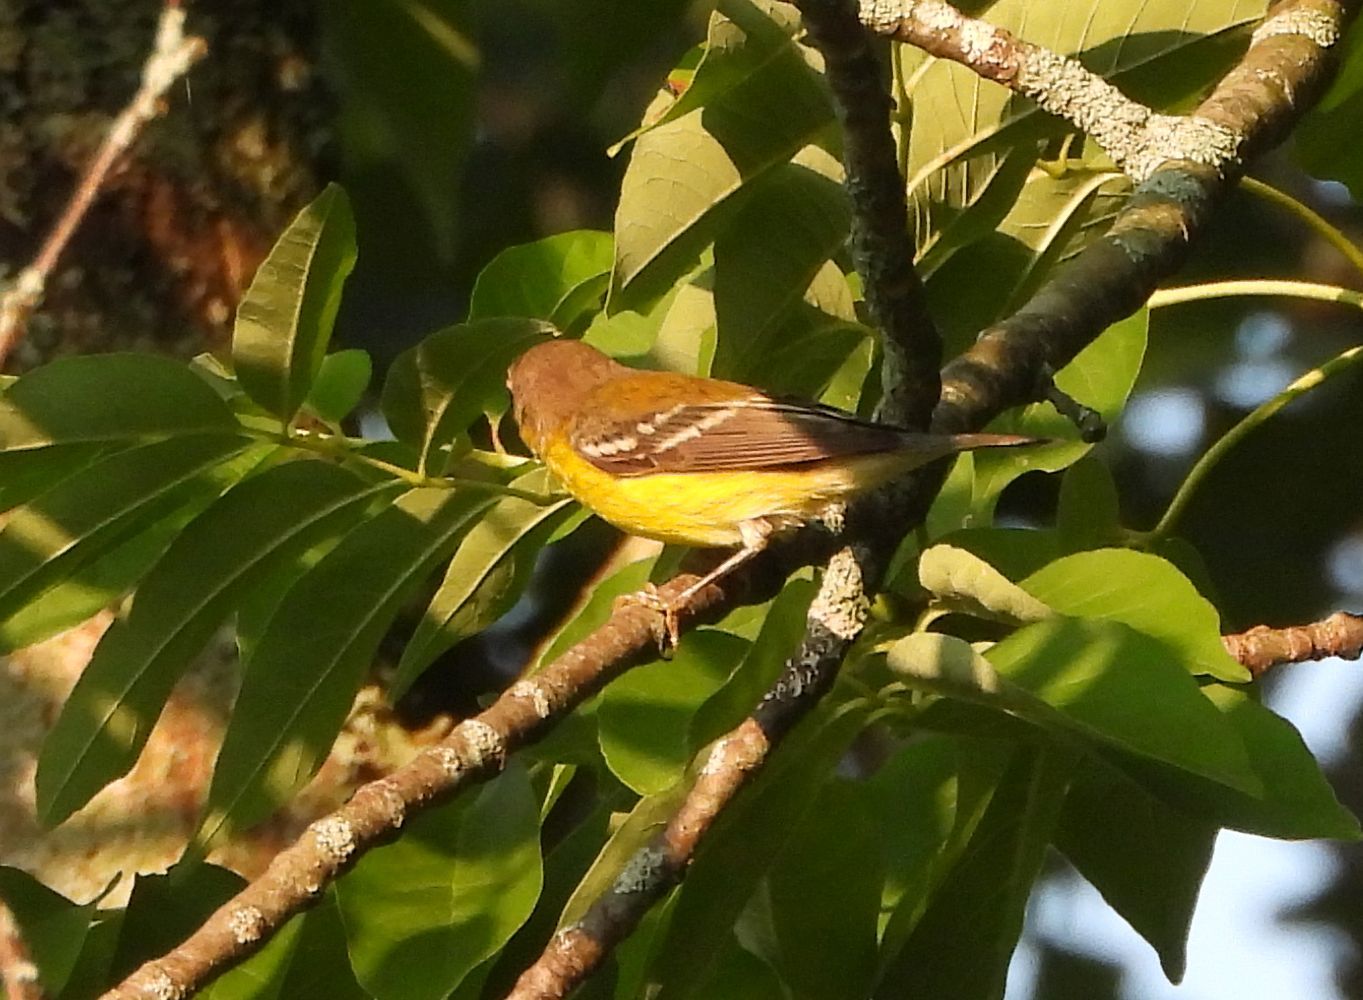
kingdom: Animalia
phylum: Chordata
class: Aves
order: Passeriformes
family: Parulidae
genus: Setophaga
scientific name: Setophaga magnolia
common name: Magnolia warbler
